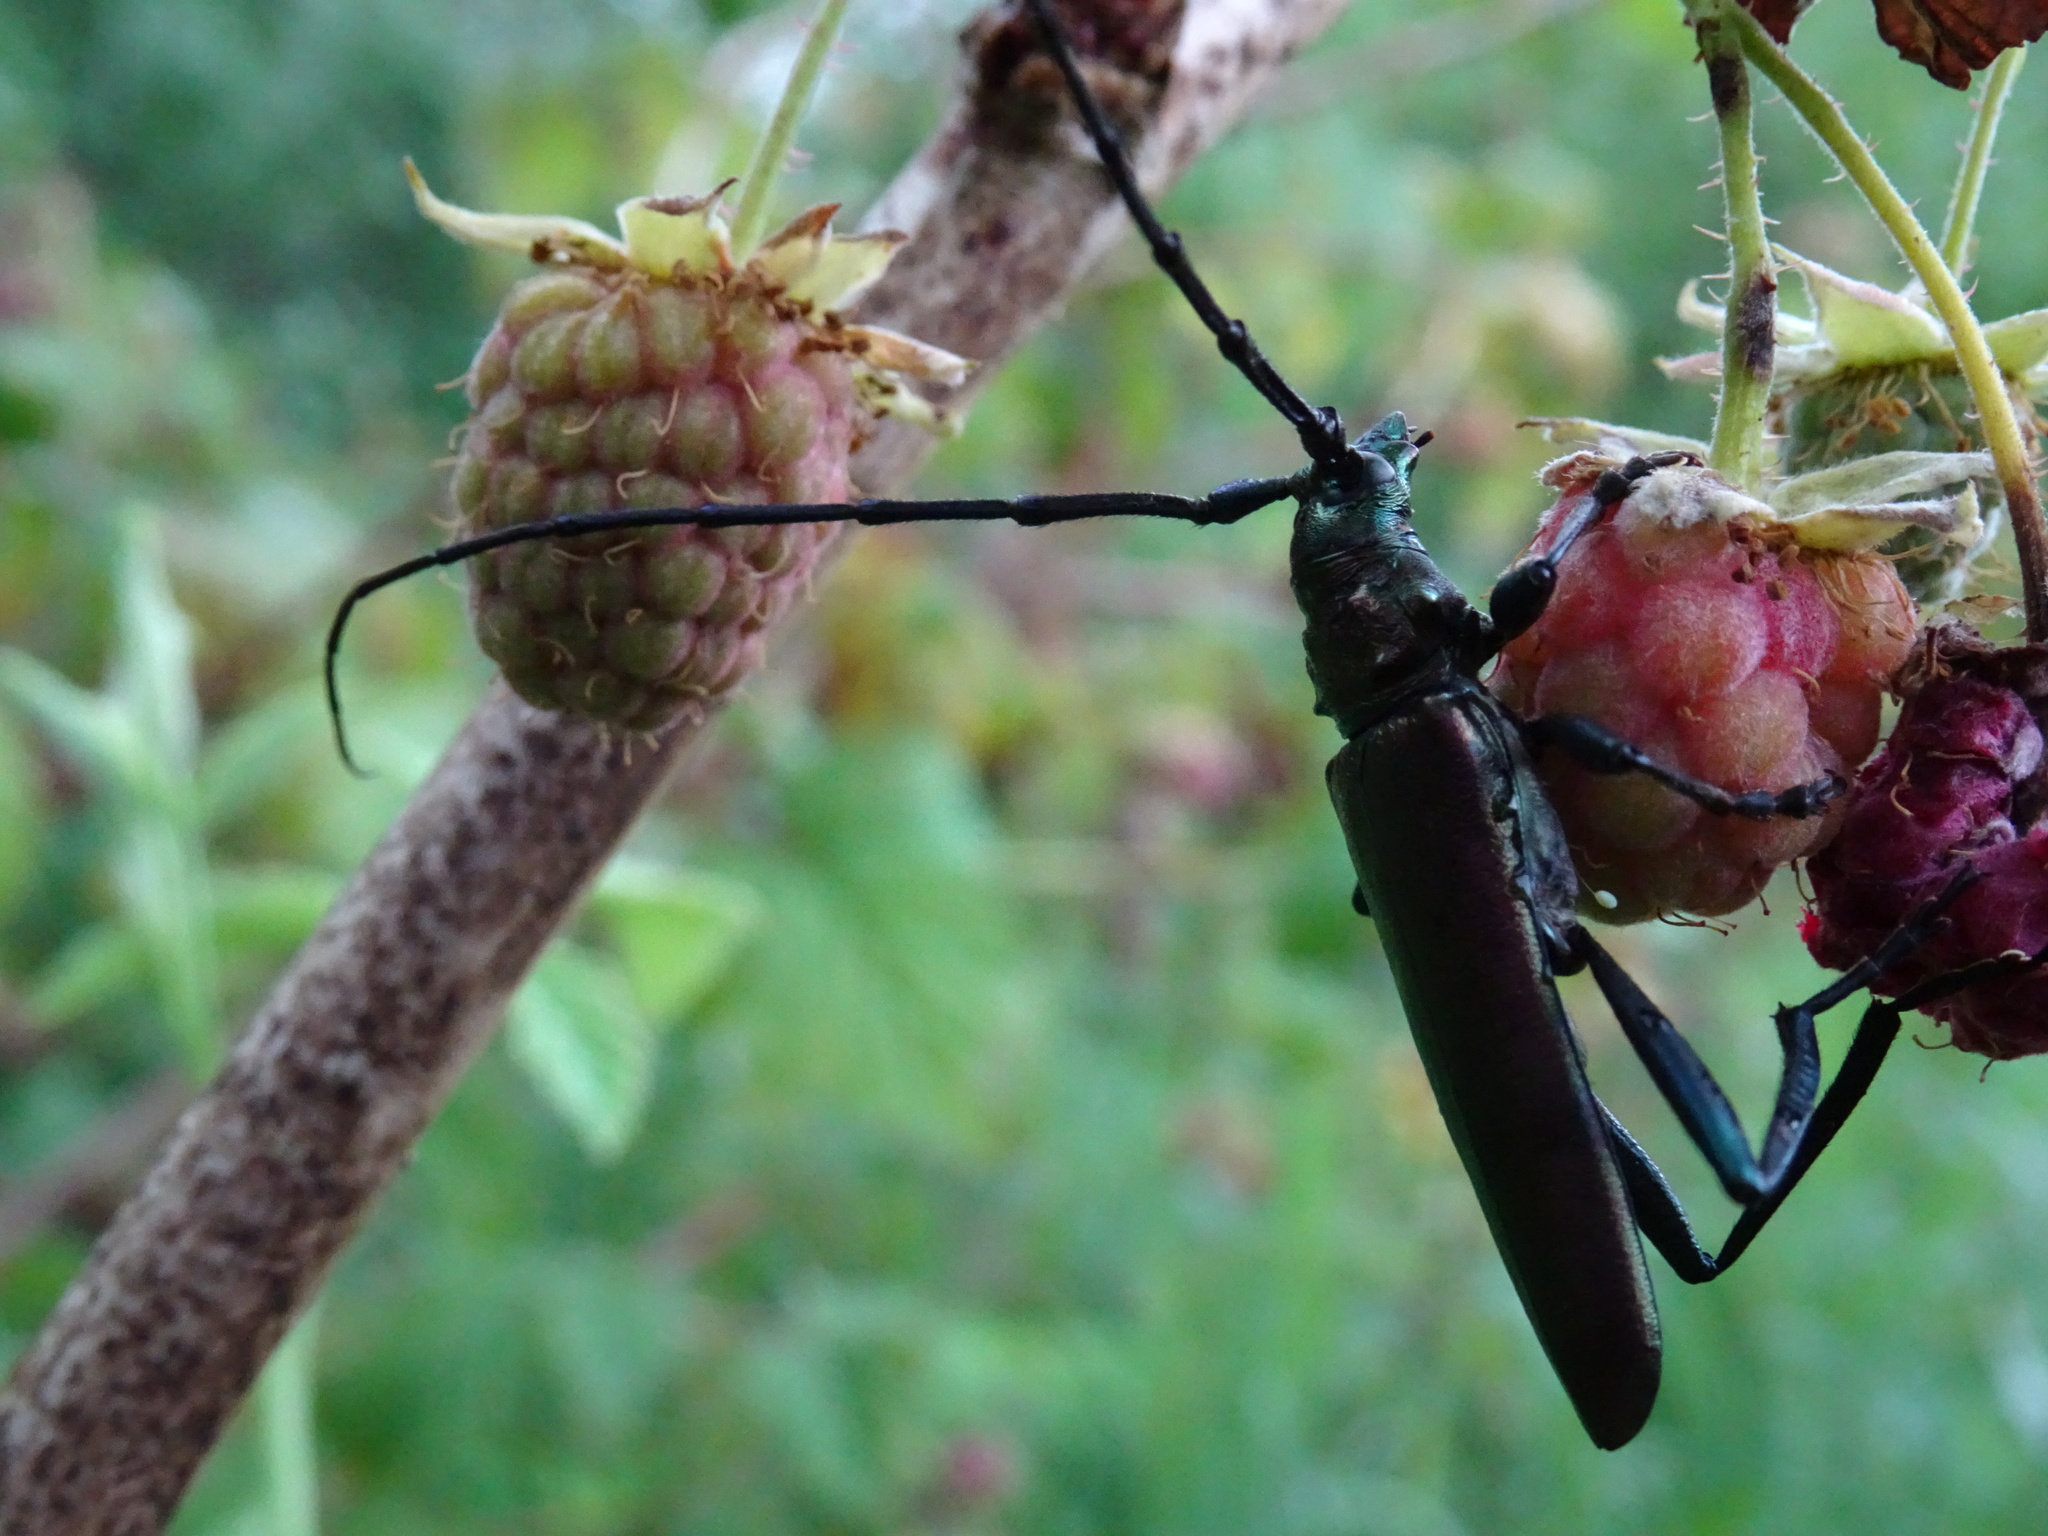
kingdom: Animalia
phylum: Arthropoda
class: Insecta
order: Coleoptera
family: Cerambycidae
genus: Aromia
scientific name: Aromia moschata
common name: Musk beetle
